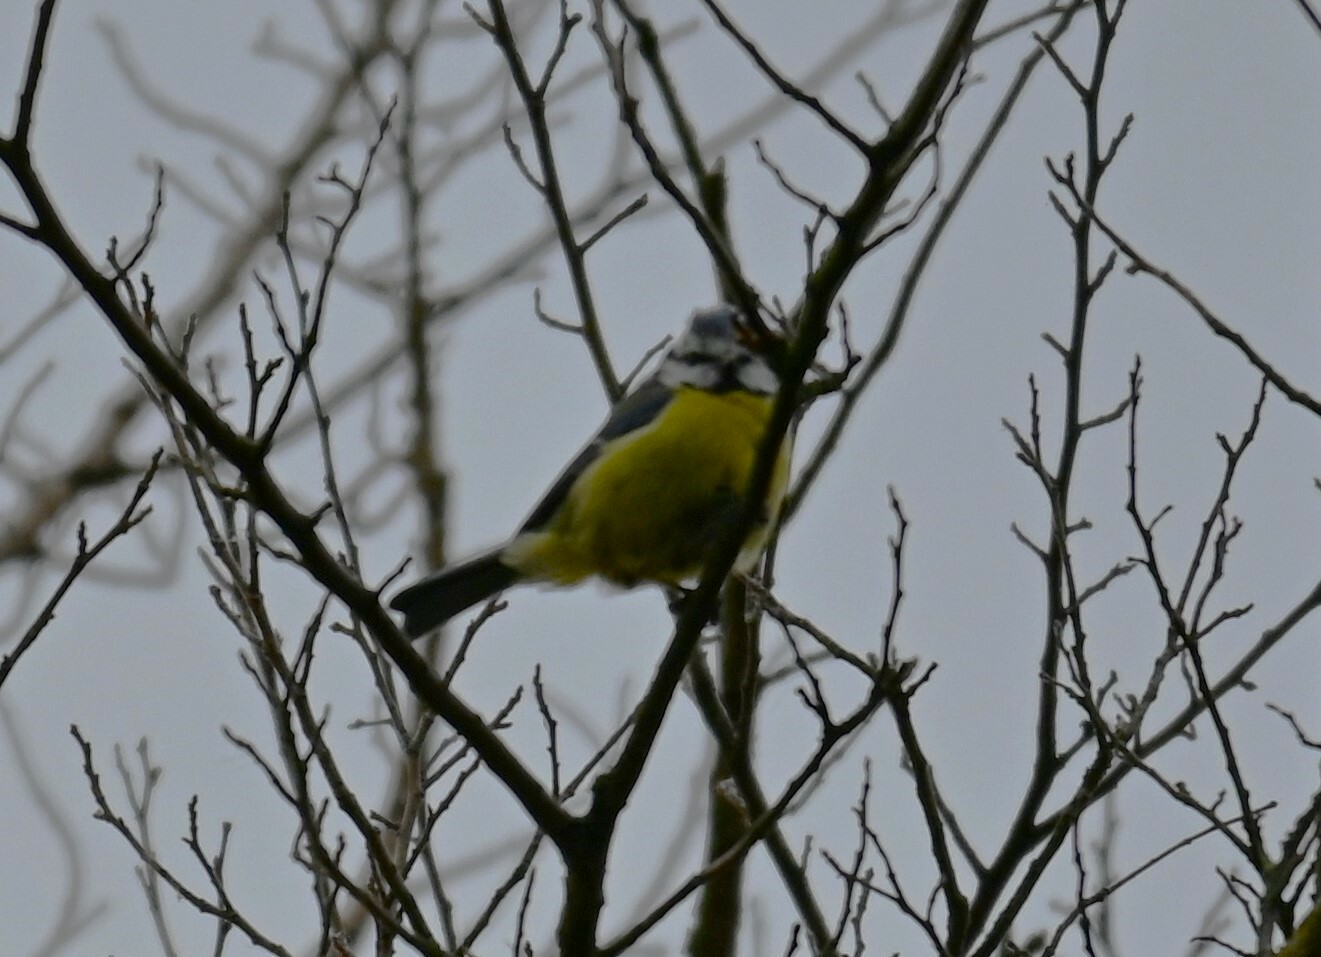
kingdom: Animalia
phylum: Chordata
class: Aves
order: Passeriformes
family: Paridae
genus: Cyanistes
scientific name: Cyanistes caeruleus
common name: Eurasian blue tit
